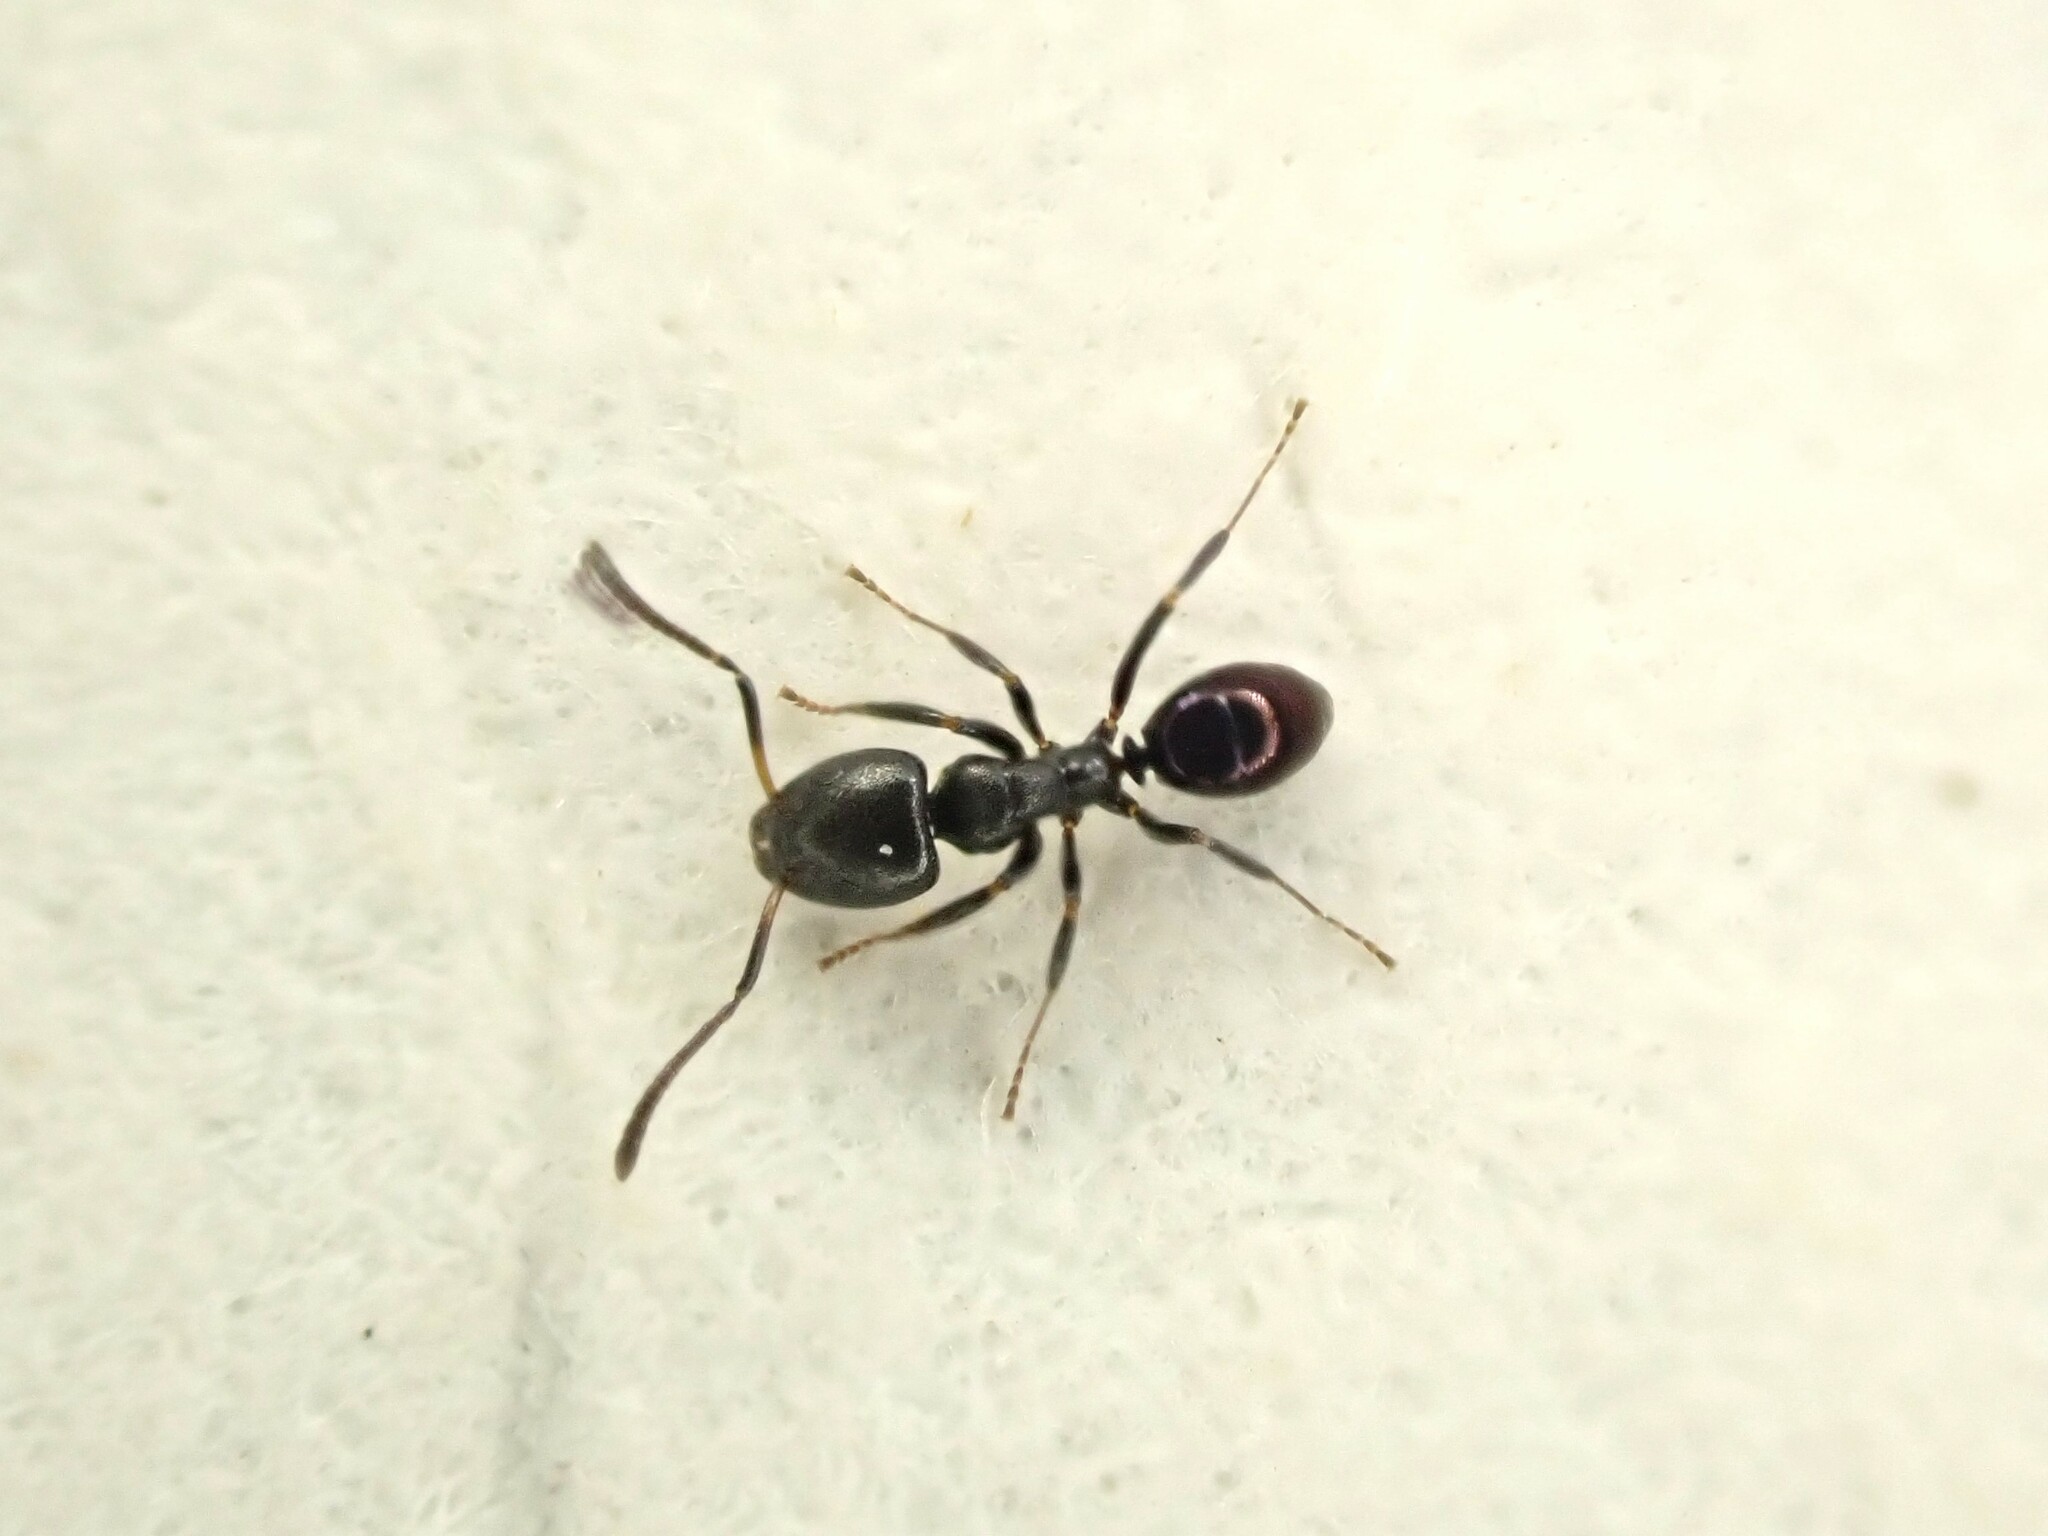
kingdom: Animalia
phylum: Arthropoda
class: Insecta
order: Hymenoptera
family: Formicidae
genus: Ochetellus
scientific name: Ochetellus glaber
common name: Ant
